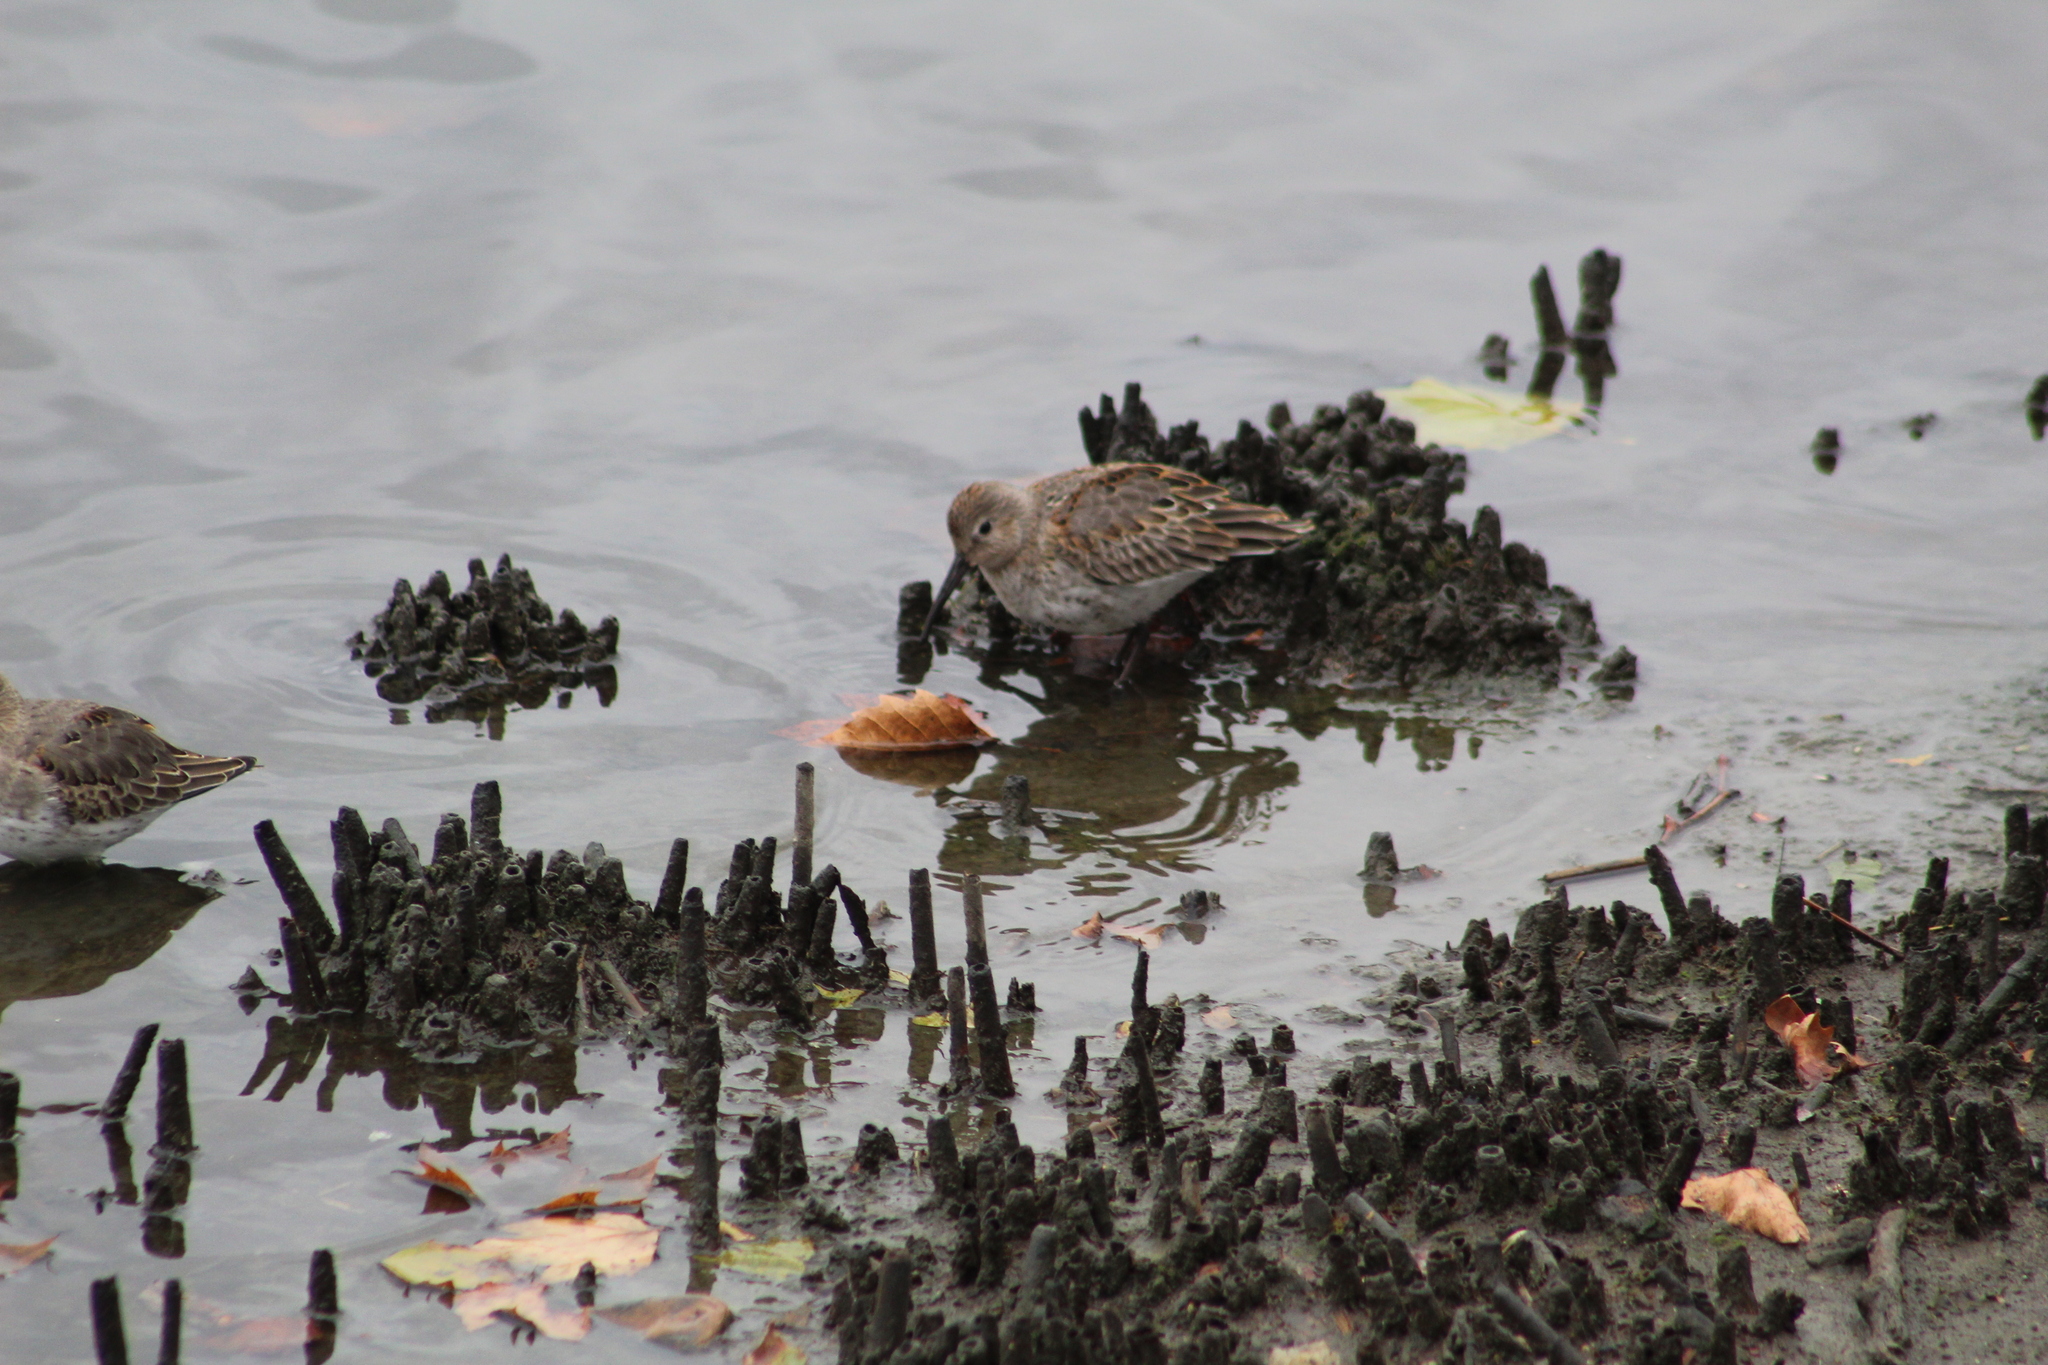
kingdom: Animalia
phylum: Chordata
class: Aves
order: Charadriiformes
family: Scolopacidae
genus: Calidris
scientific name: Calidris alpina
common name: Dunlin
